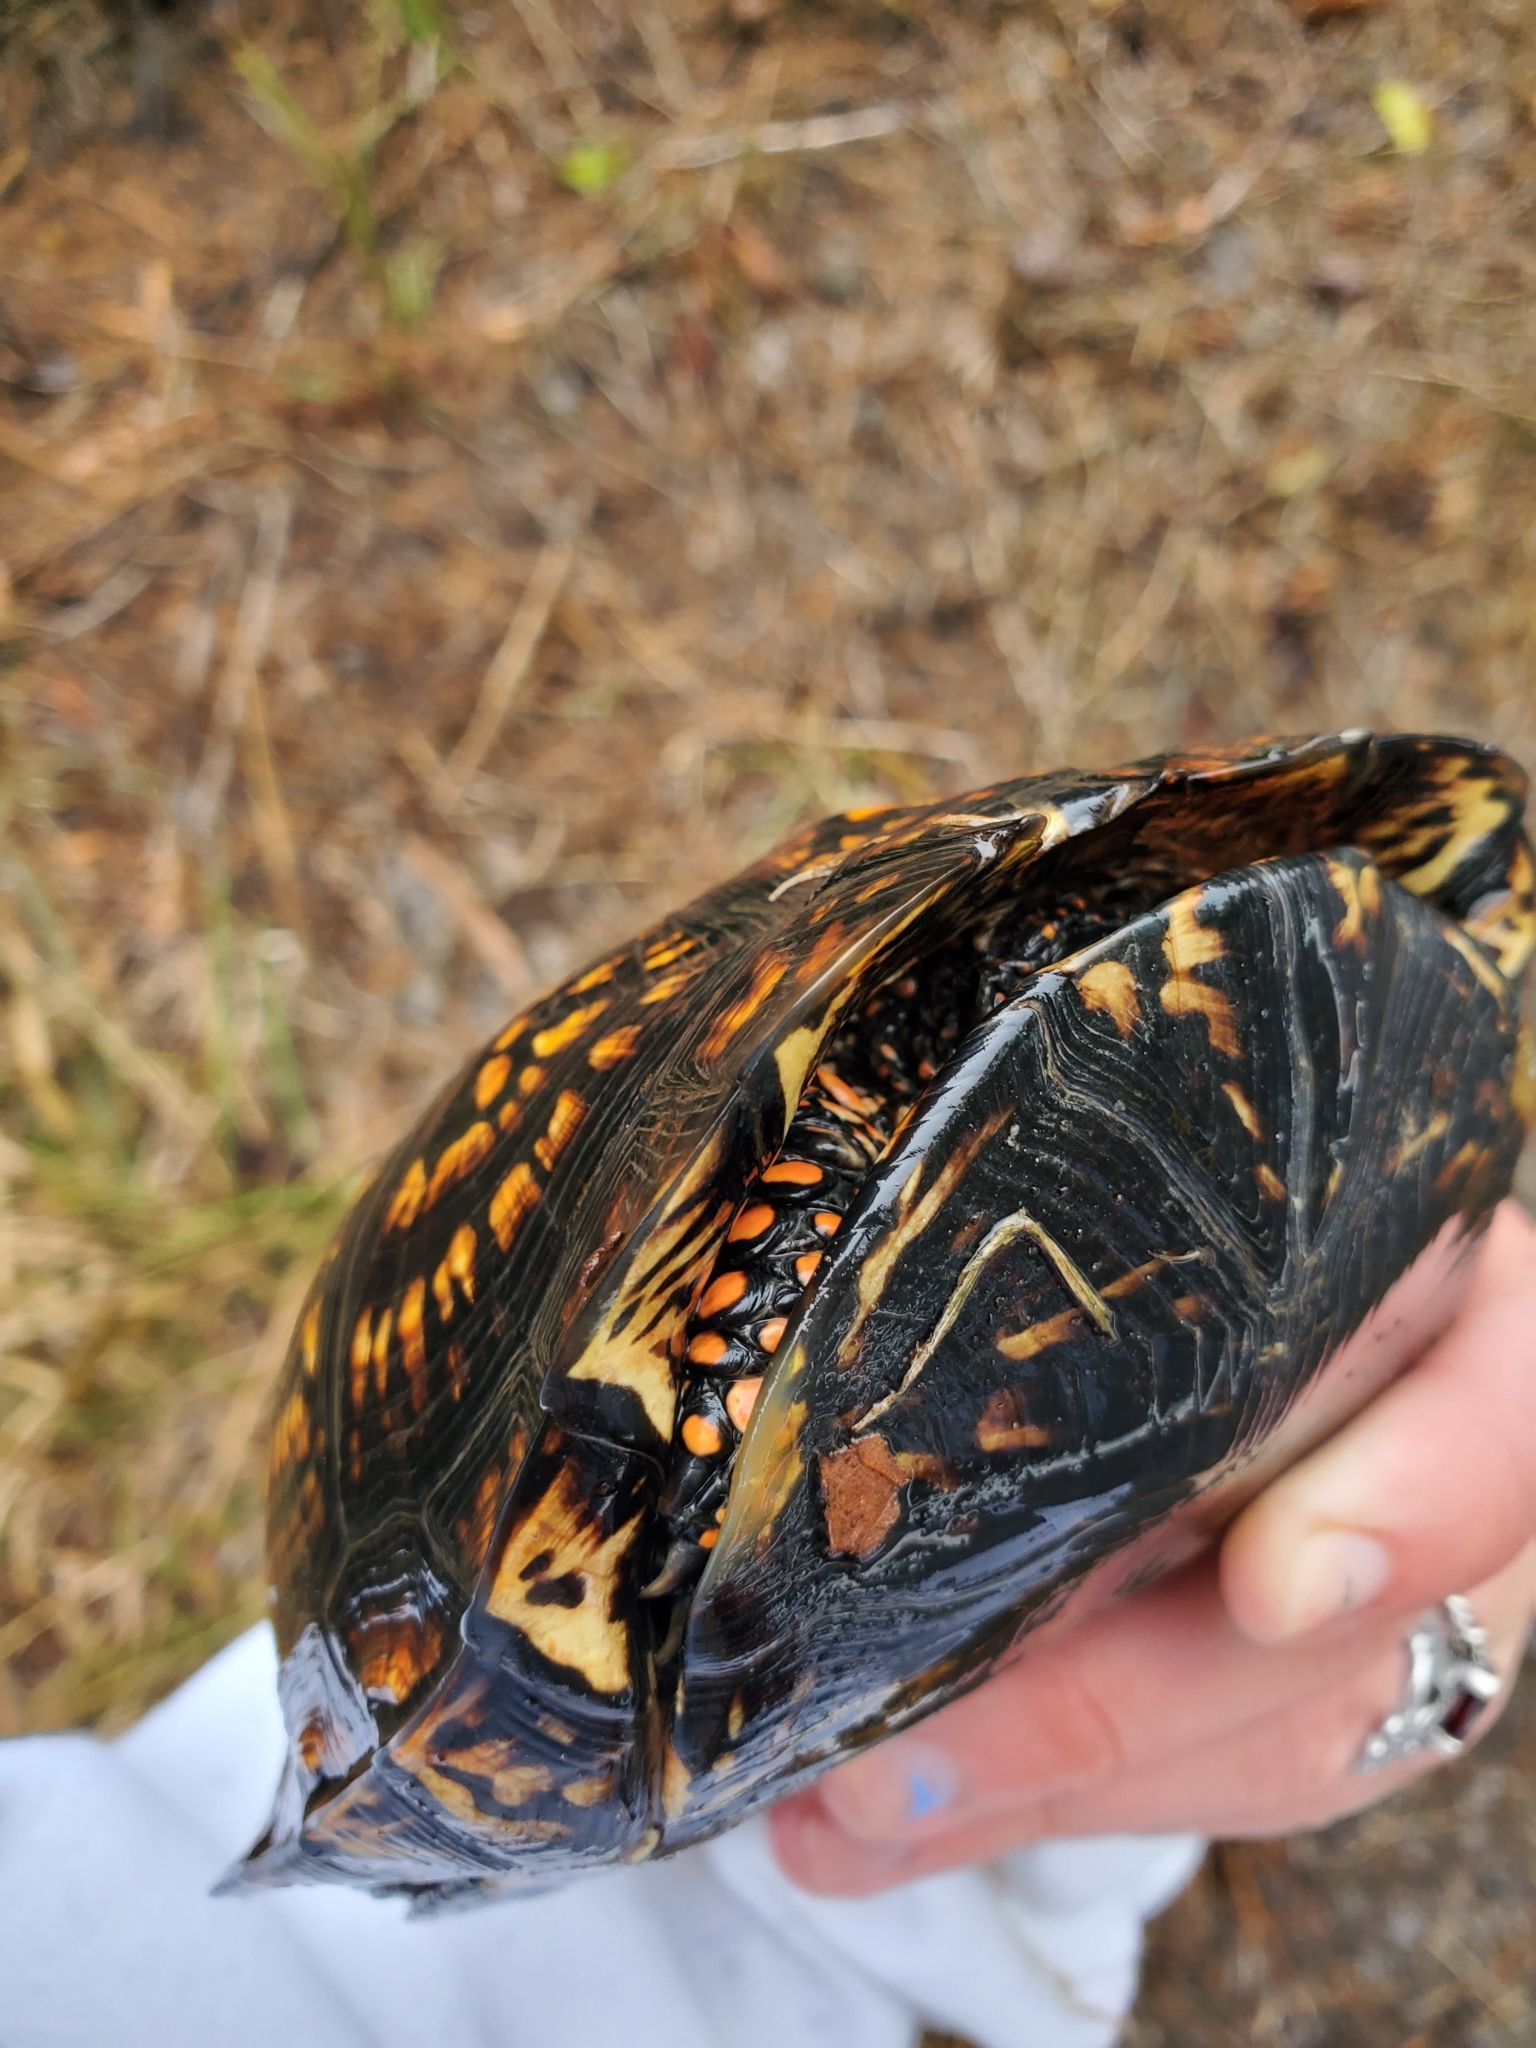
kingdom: Animalia
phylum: Chordata
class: Testudines
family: Emydidae
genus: Terrapene
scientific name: Terrapene carolina
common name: Common box turtle
